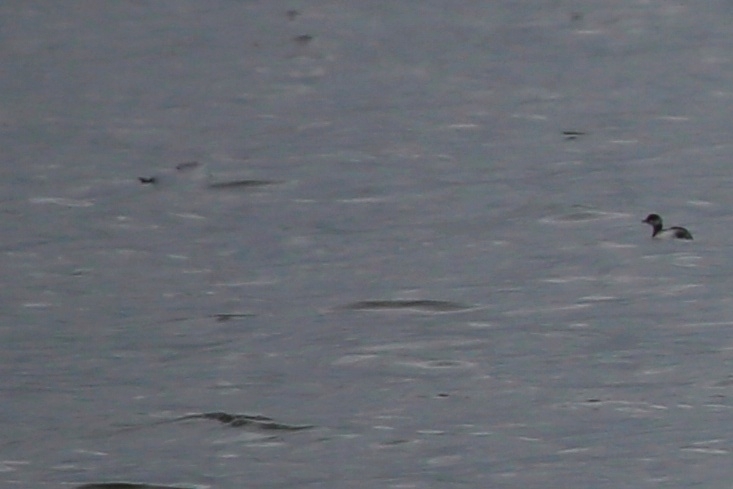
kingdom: Animalia
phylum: Chordata
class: Aves
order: Podicipediformes
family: Podicipedidae
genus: Podiceps
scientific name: Podiceps auritus
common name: Horned grebe
